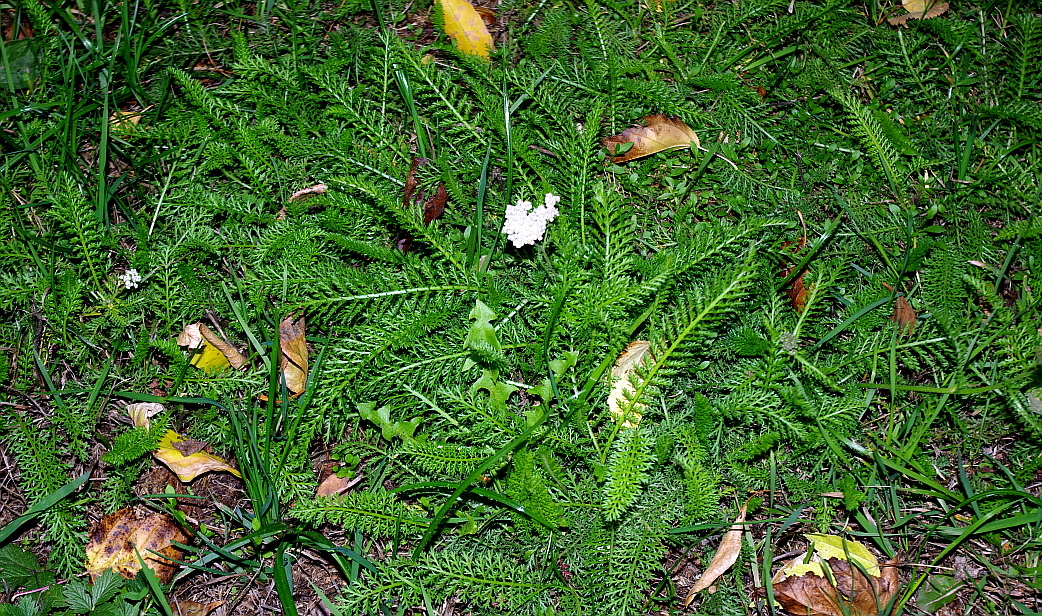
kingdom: Plantae
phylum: Tracheophyta
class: Magnoliopsida
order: Asterales
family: Asteraceae
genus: Achillea
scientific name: Achillea millefolium
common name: Yarrow
